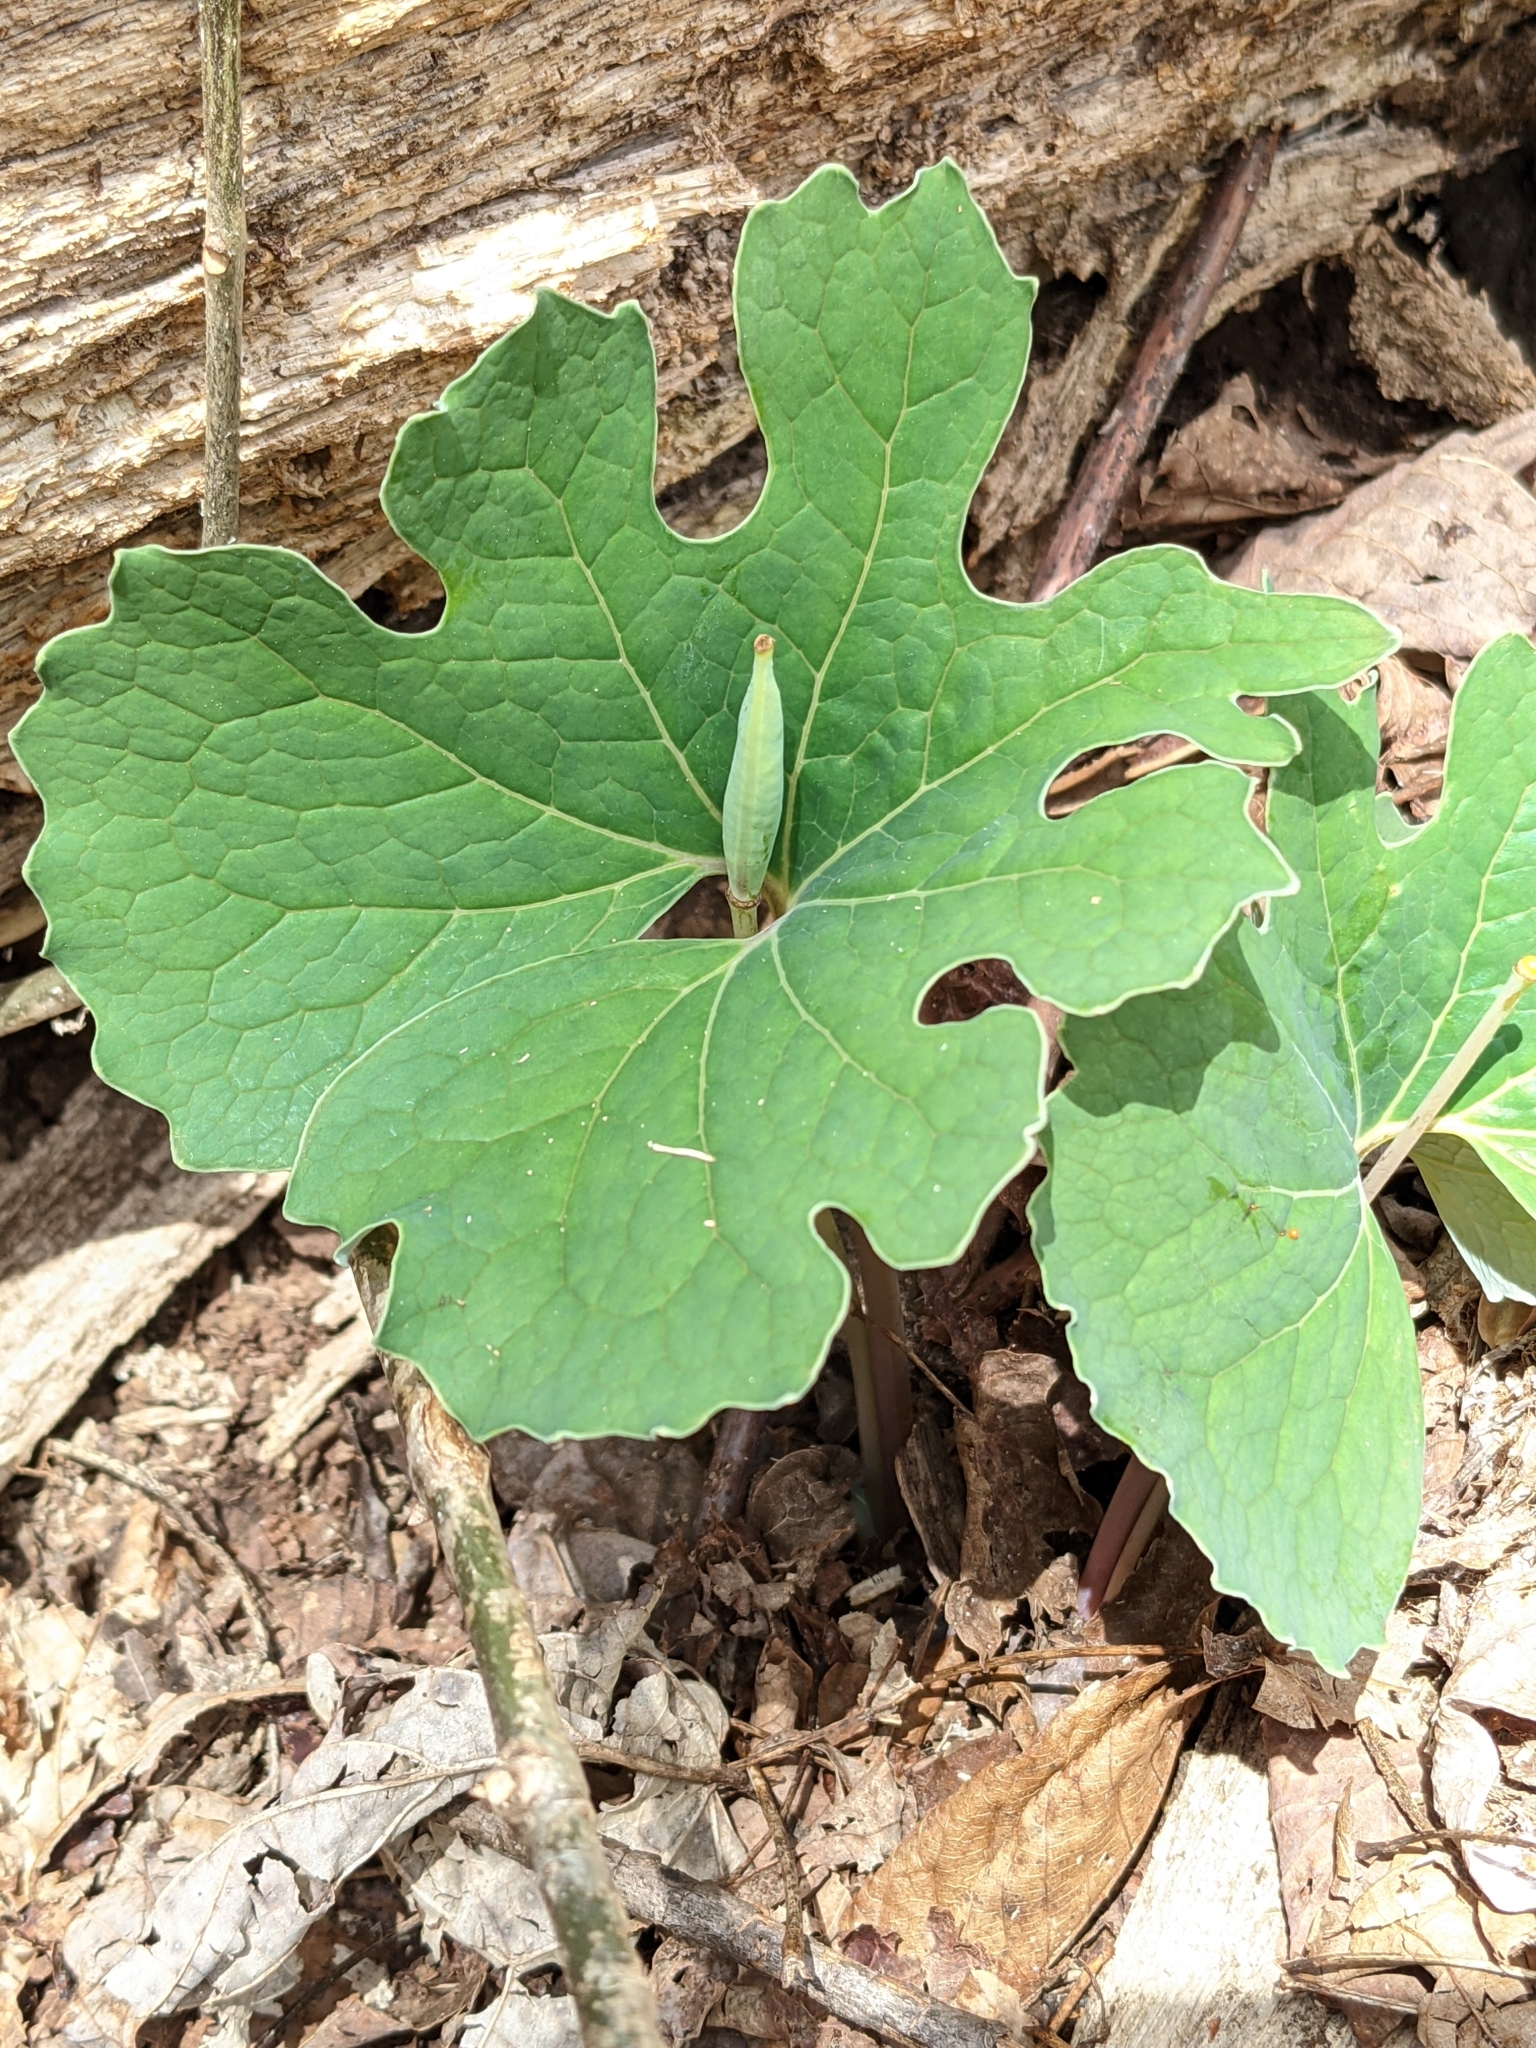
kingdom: Plantae
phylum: Tracheophyta
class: Magnoliopsida
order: Ranunculales
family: Papaveraceae
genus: Sanguinaria
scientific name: Sanguinaria canadensis
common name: Bloodroot
